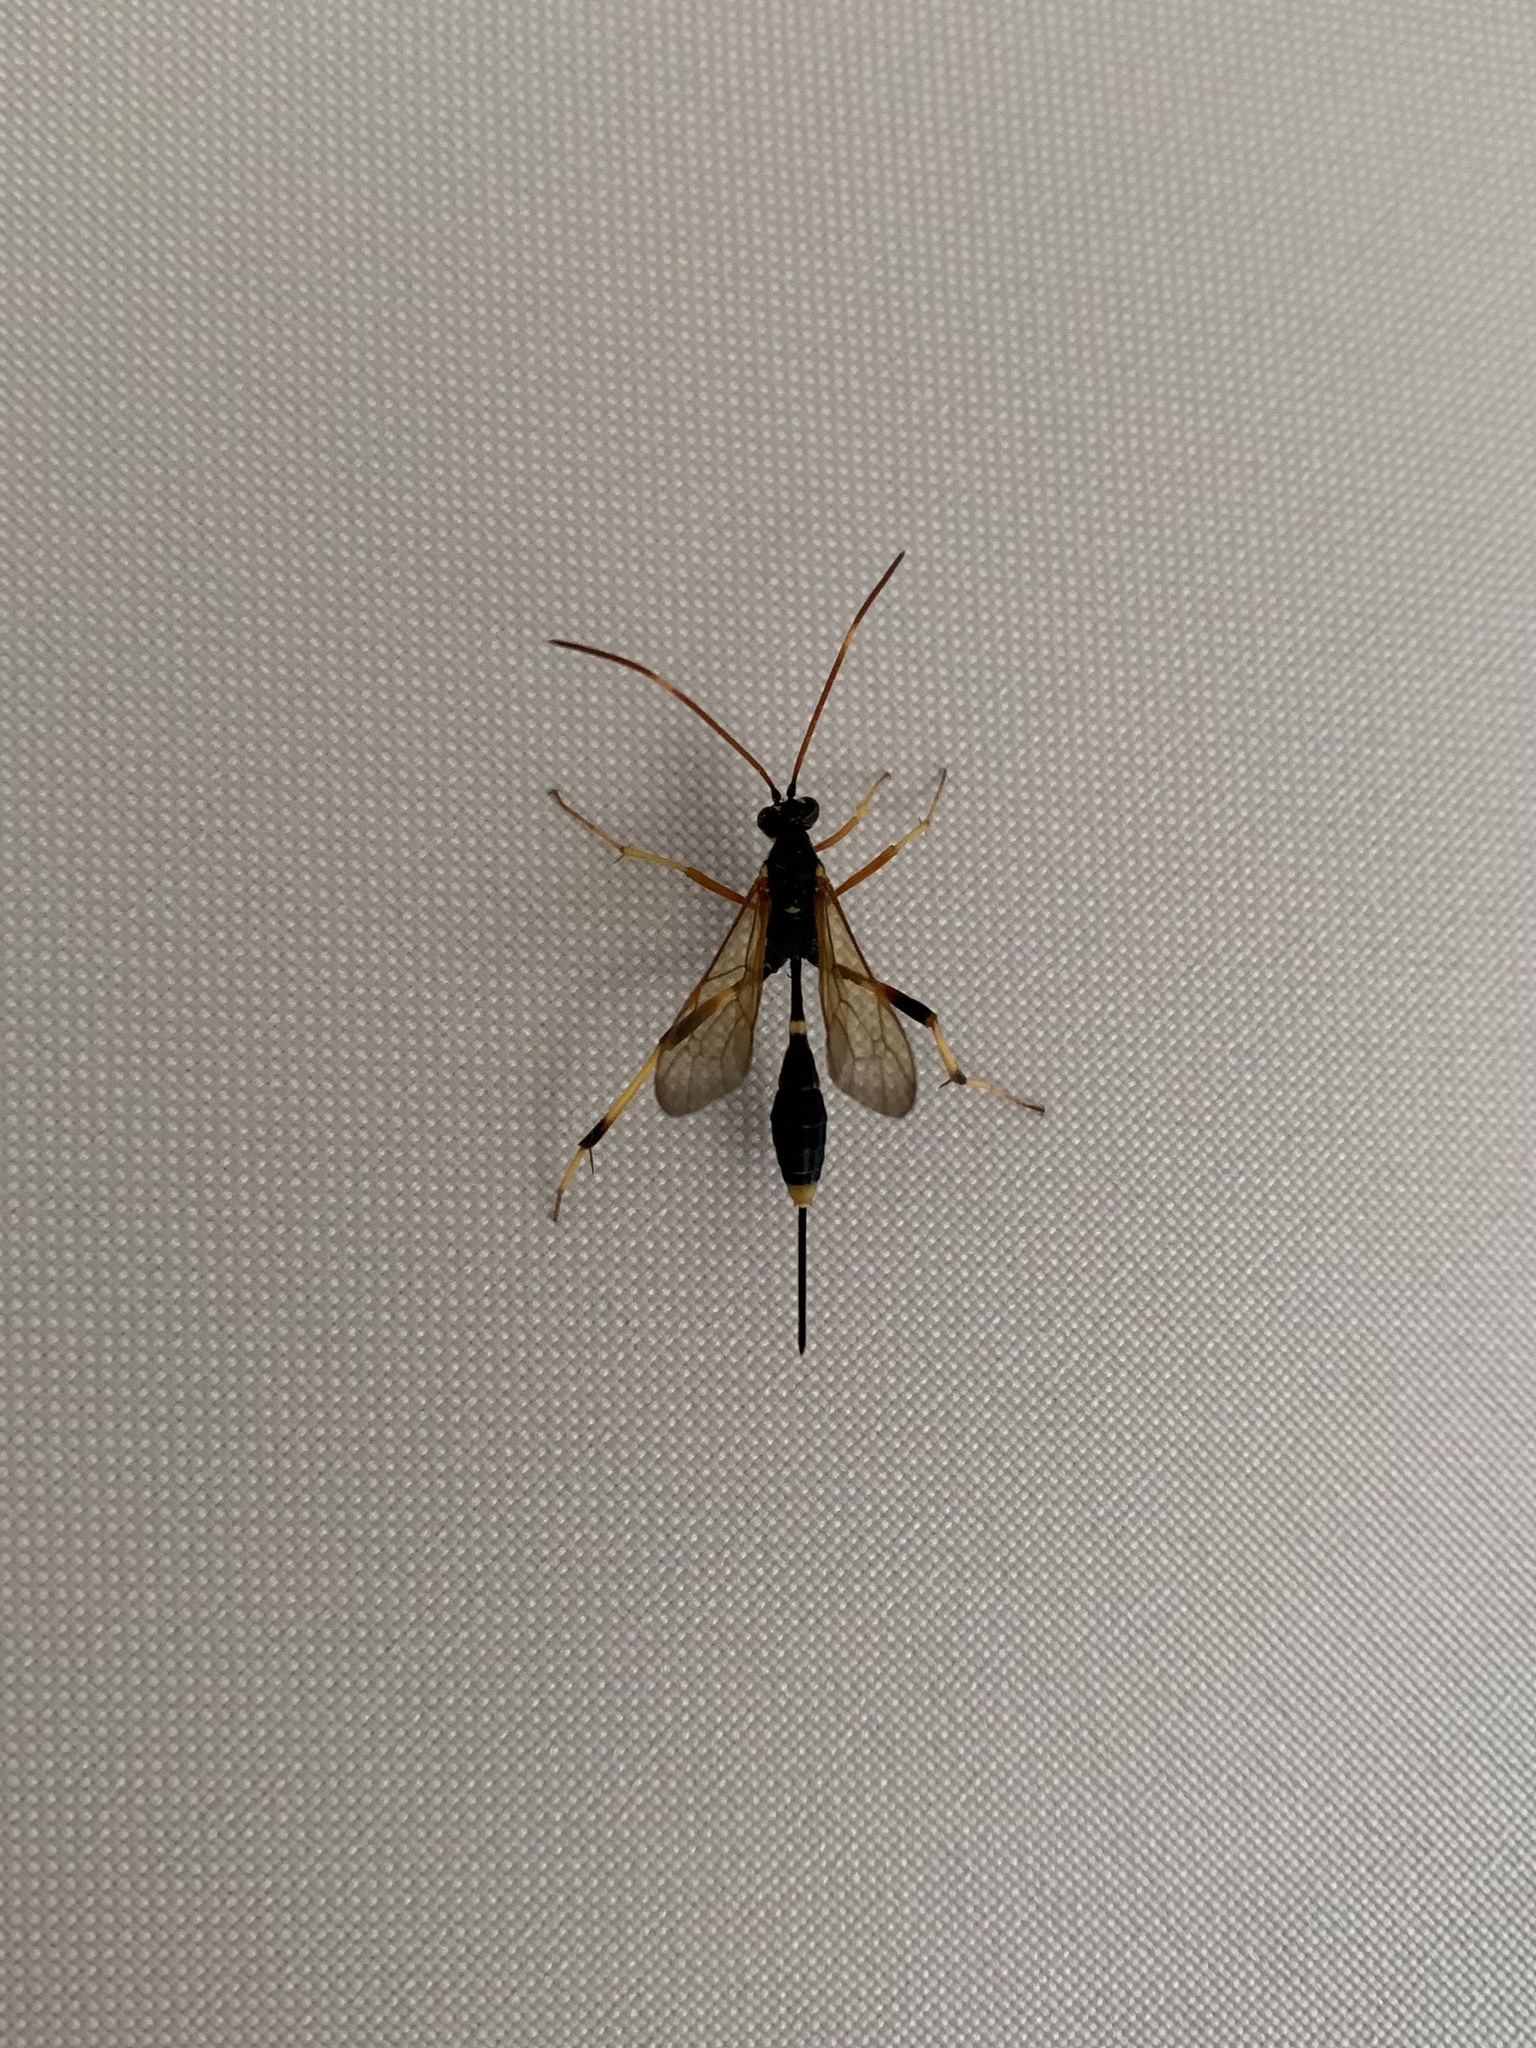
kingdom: Animalia
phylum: Arthropoda
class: Insecta
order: Hymenoptera
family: Ichneumonidae
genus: Acroricnus
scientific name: Acroricnus seductor
